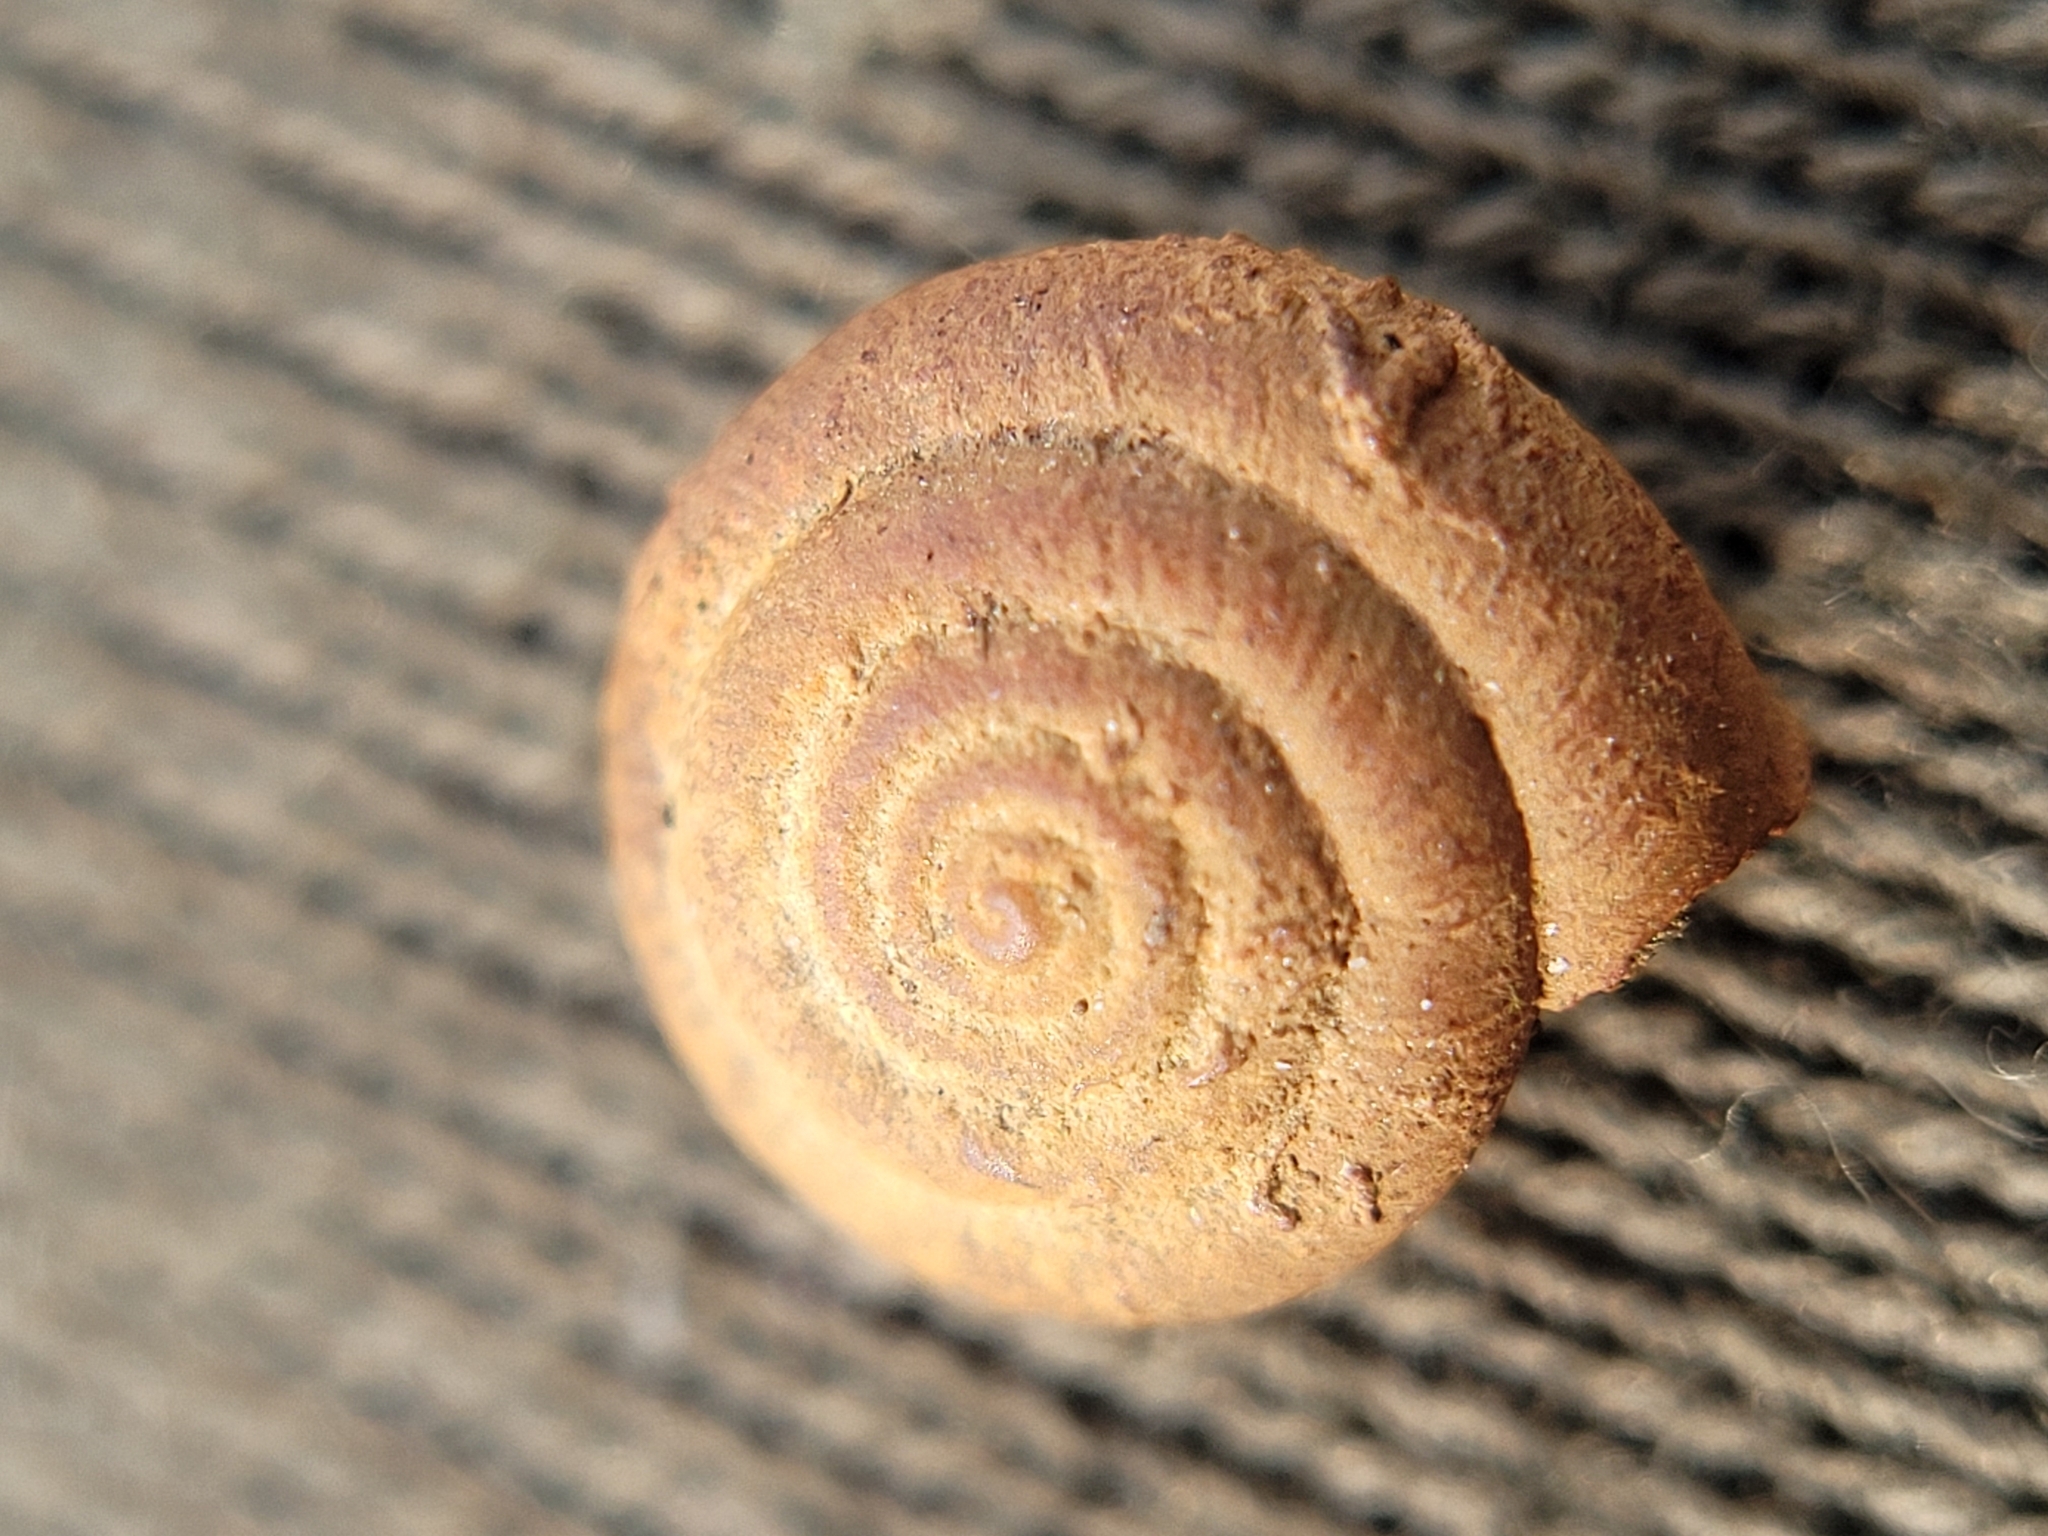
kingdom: Animalia
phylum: Mollusca
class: Gastropoda
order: Stylommatophora
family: Hygromiidae
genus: Trochulus
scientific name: Trochulus hispidus
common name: Hairy snail
